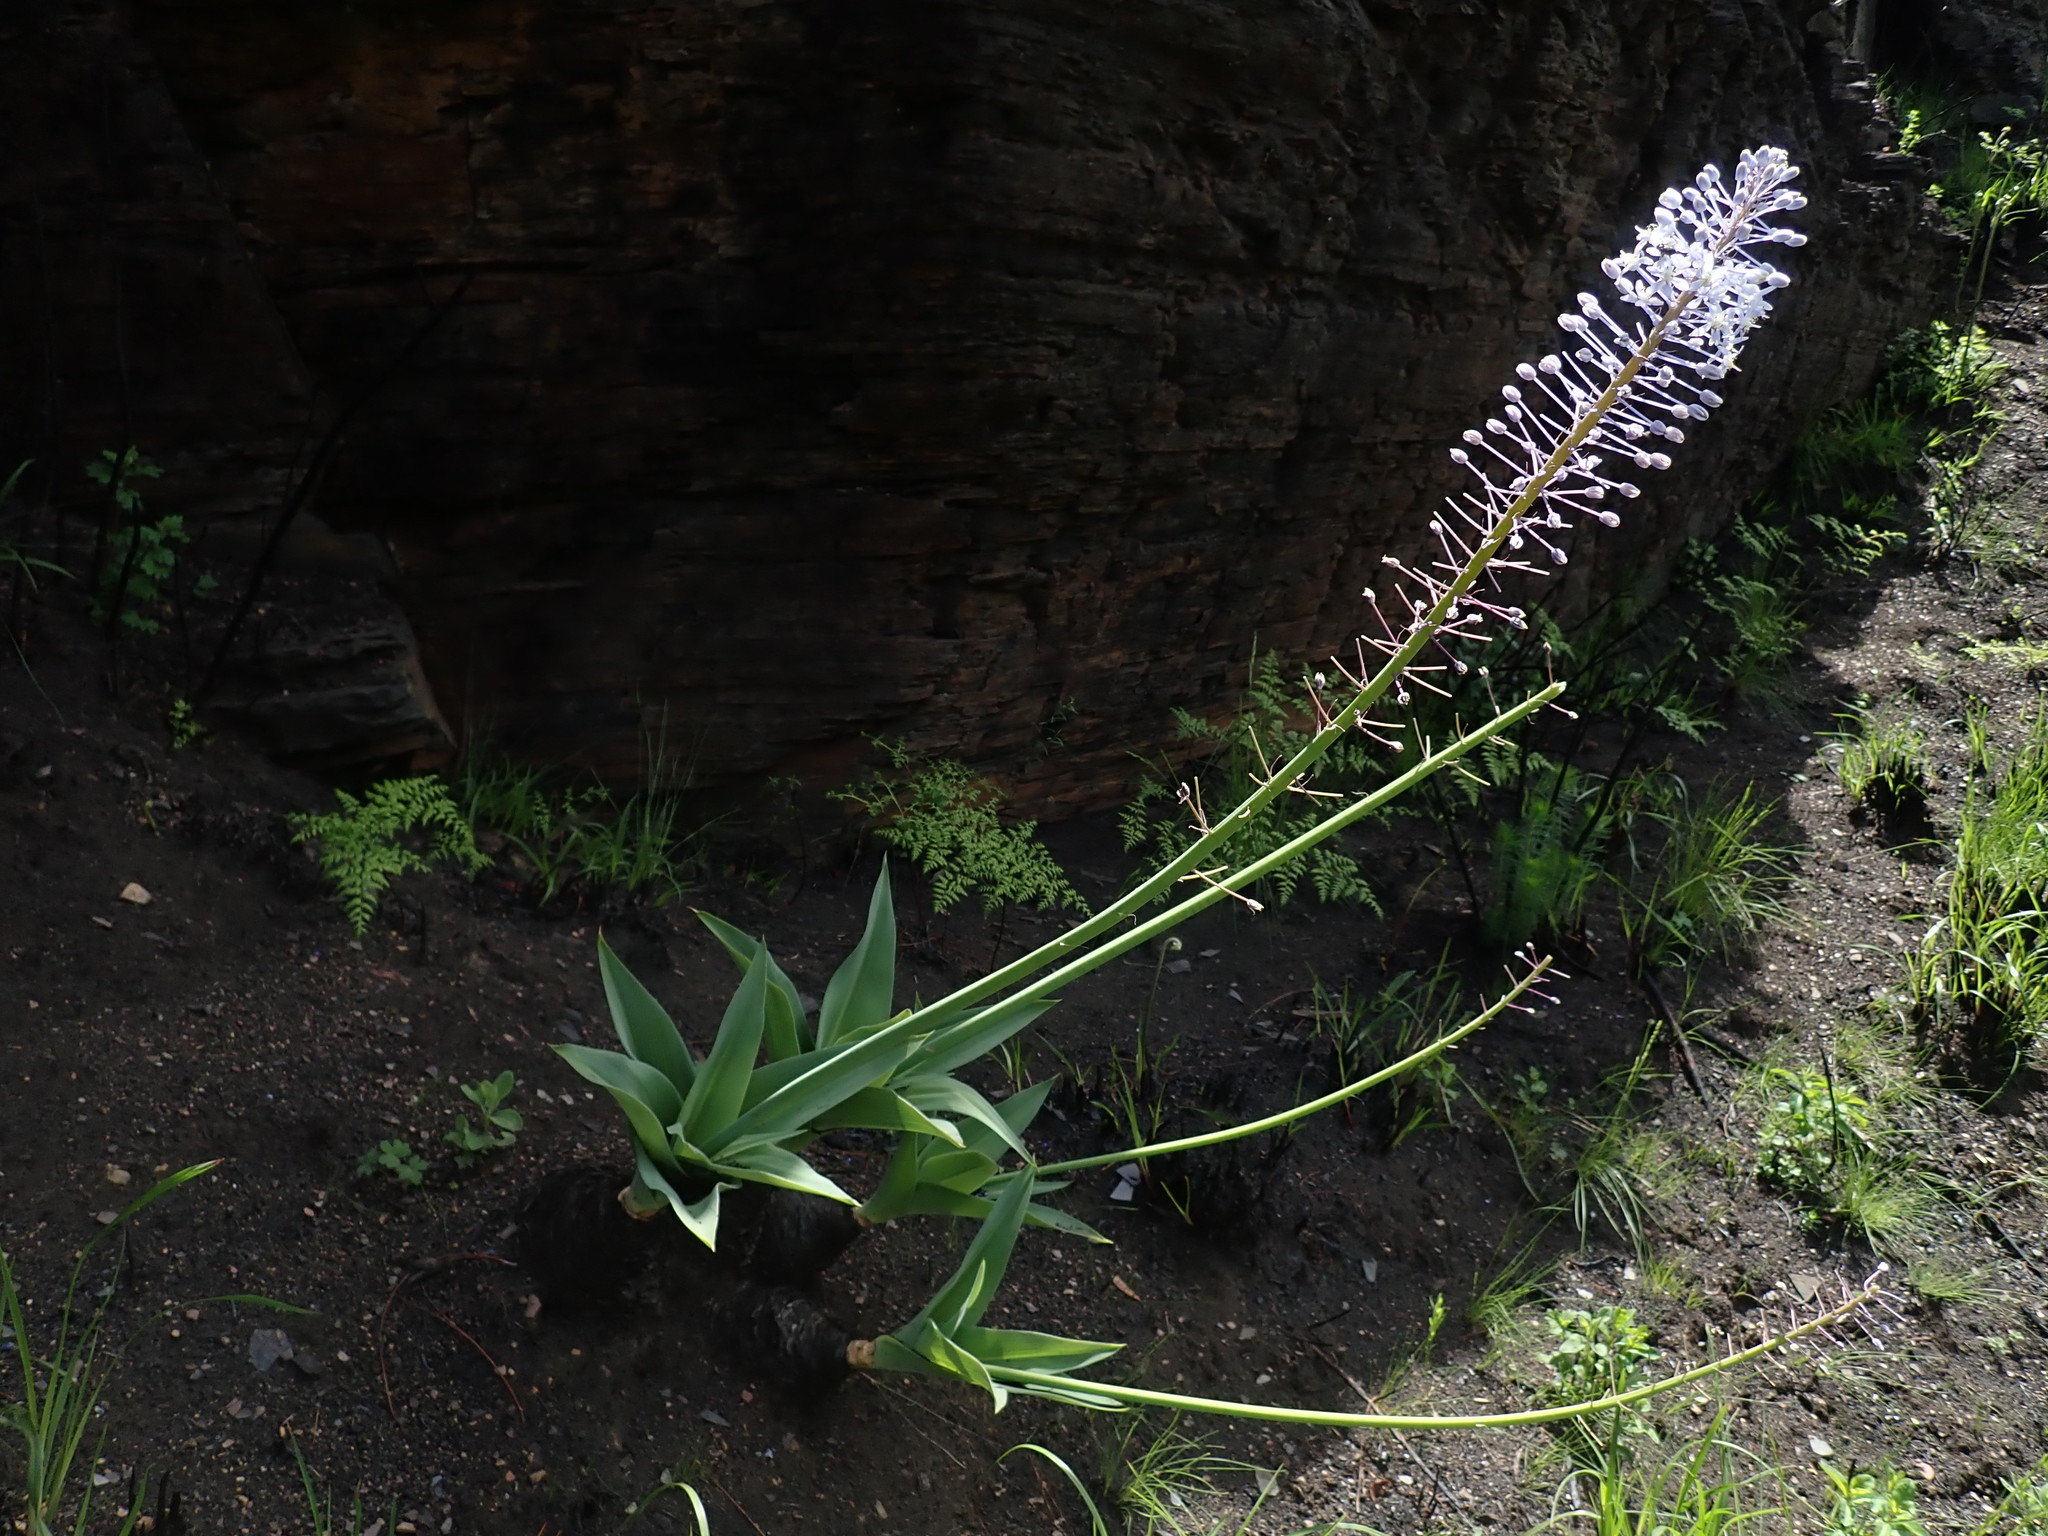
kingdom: Plantae
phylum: Tracheophyta
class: Liliopsida
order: Asparagales
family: Asparagaceae
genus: Merwilla
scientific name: Merwilla plumbea
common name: Blue-squill
